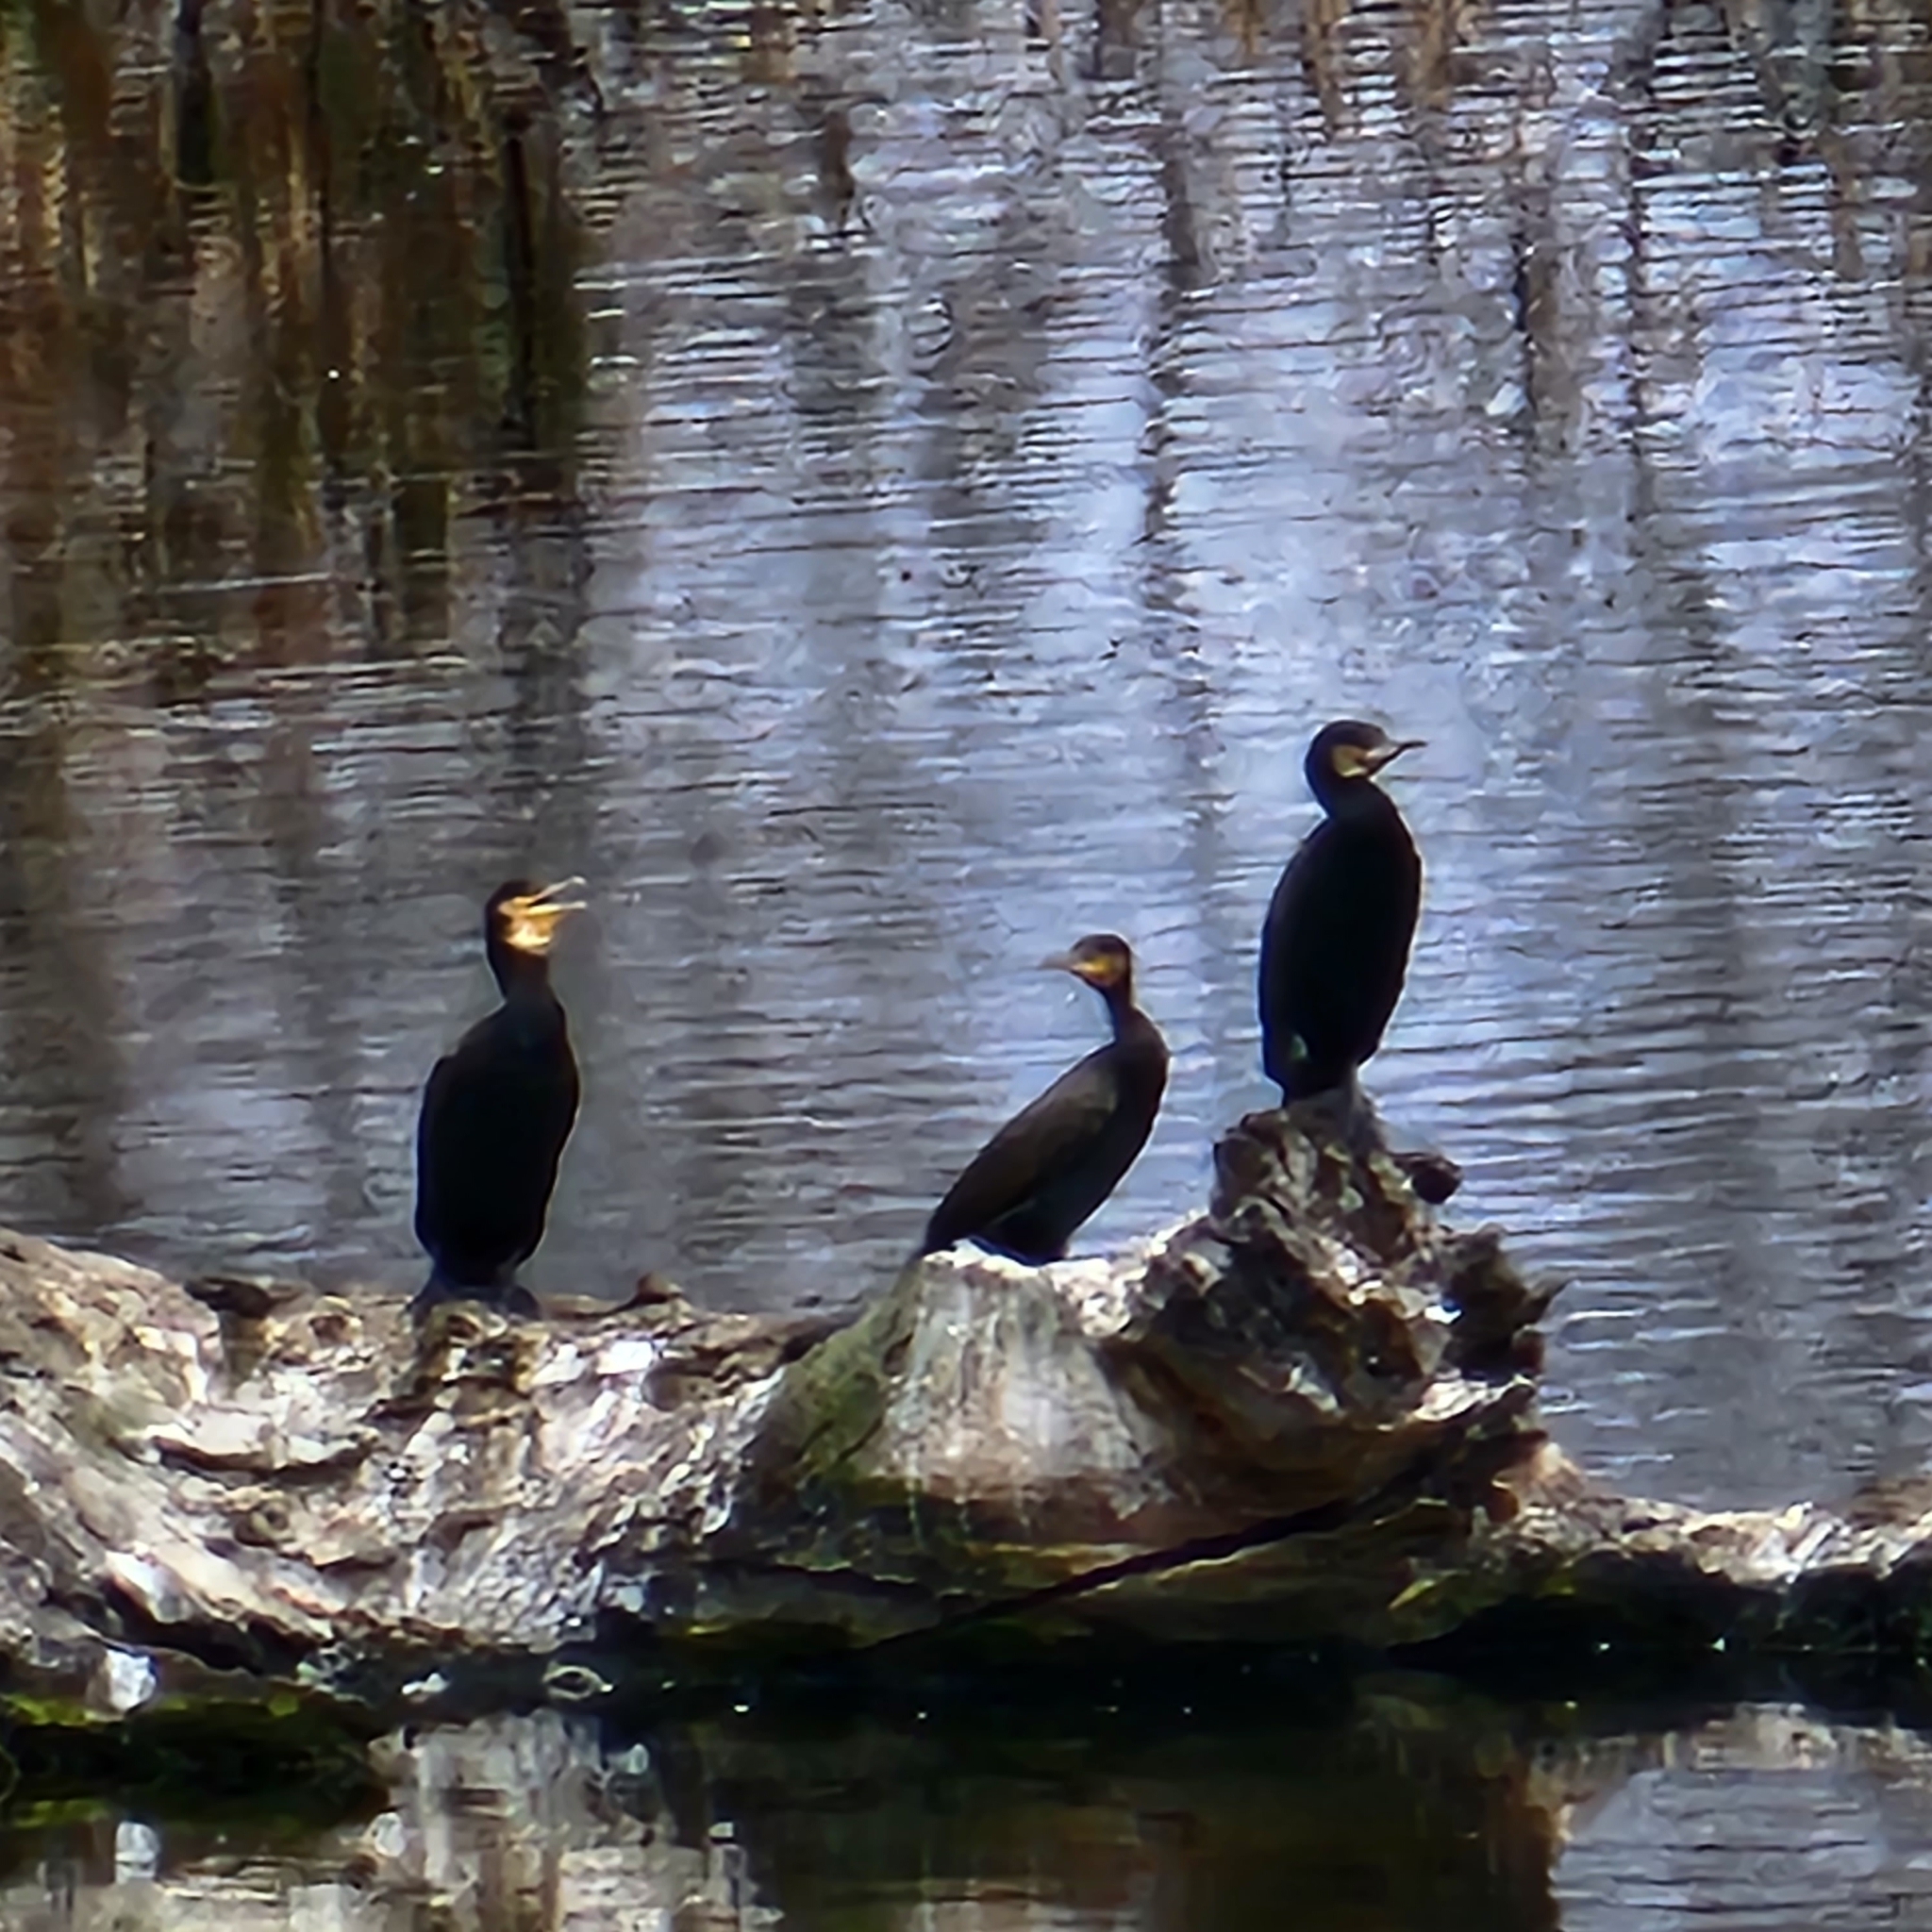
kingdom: Animalia
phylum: Chordata
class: Aves
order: Suliformes
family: Phalacrocoracidae
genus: Phalacrocorax
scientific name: Phalacrocorax carbo
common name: Great cormorant
